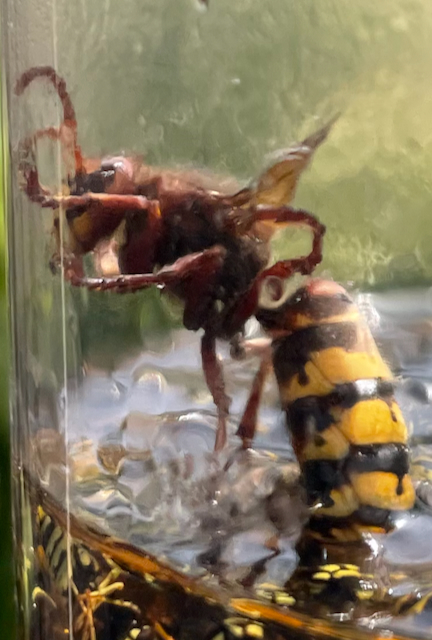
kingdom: Animalia
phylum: Arthropoda
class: Insecta
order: Hymenoptera
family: Vespidae
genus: Vespa
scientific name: Vespa crabro
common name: Hornet
